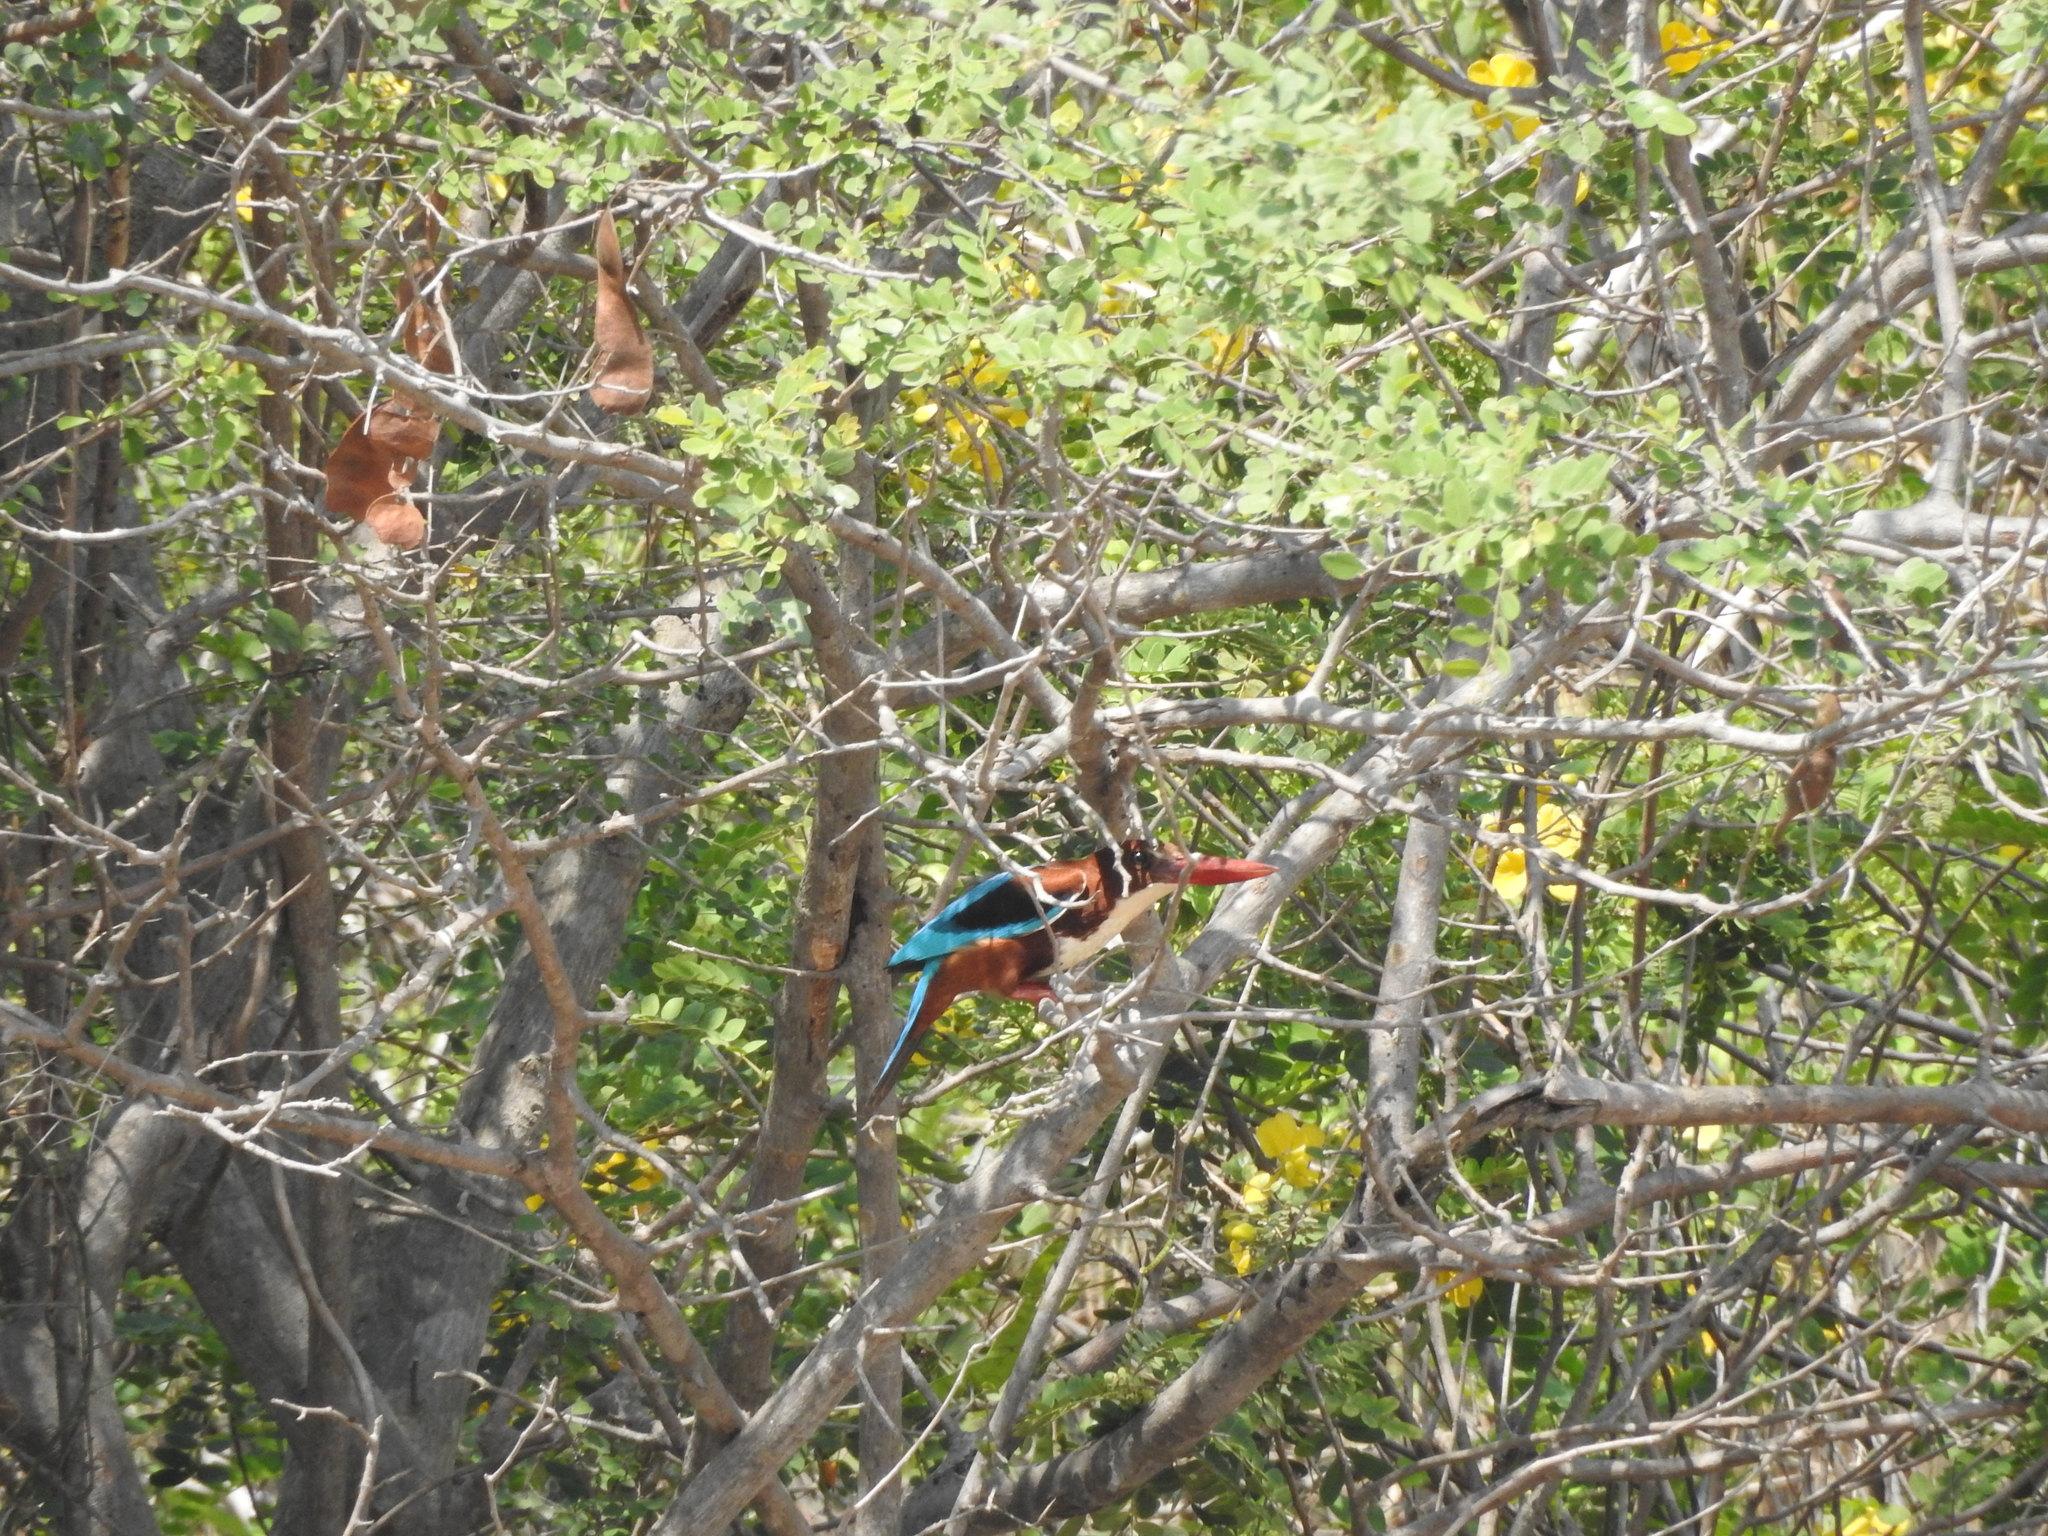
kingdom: Animalia
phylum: Chordata
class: Aves
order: Coraciiformes
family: Alcedinidae
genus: Halcyon
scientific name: Halcyon smyrnensis
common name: White-throated kingfisher
